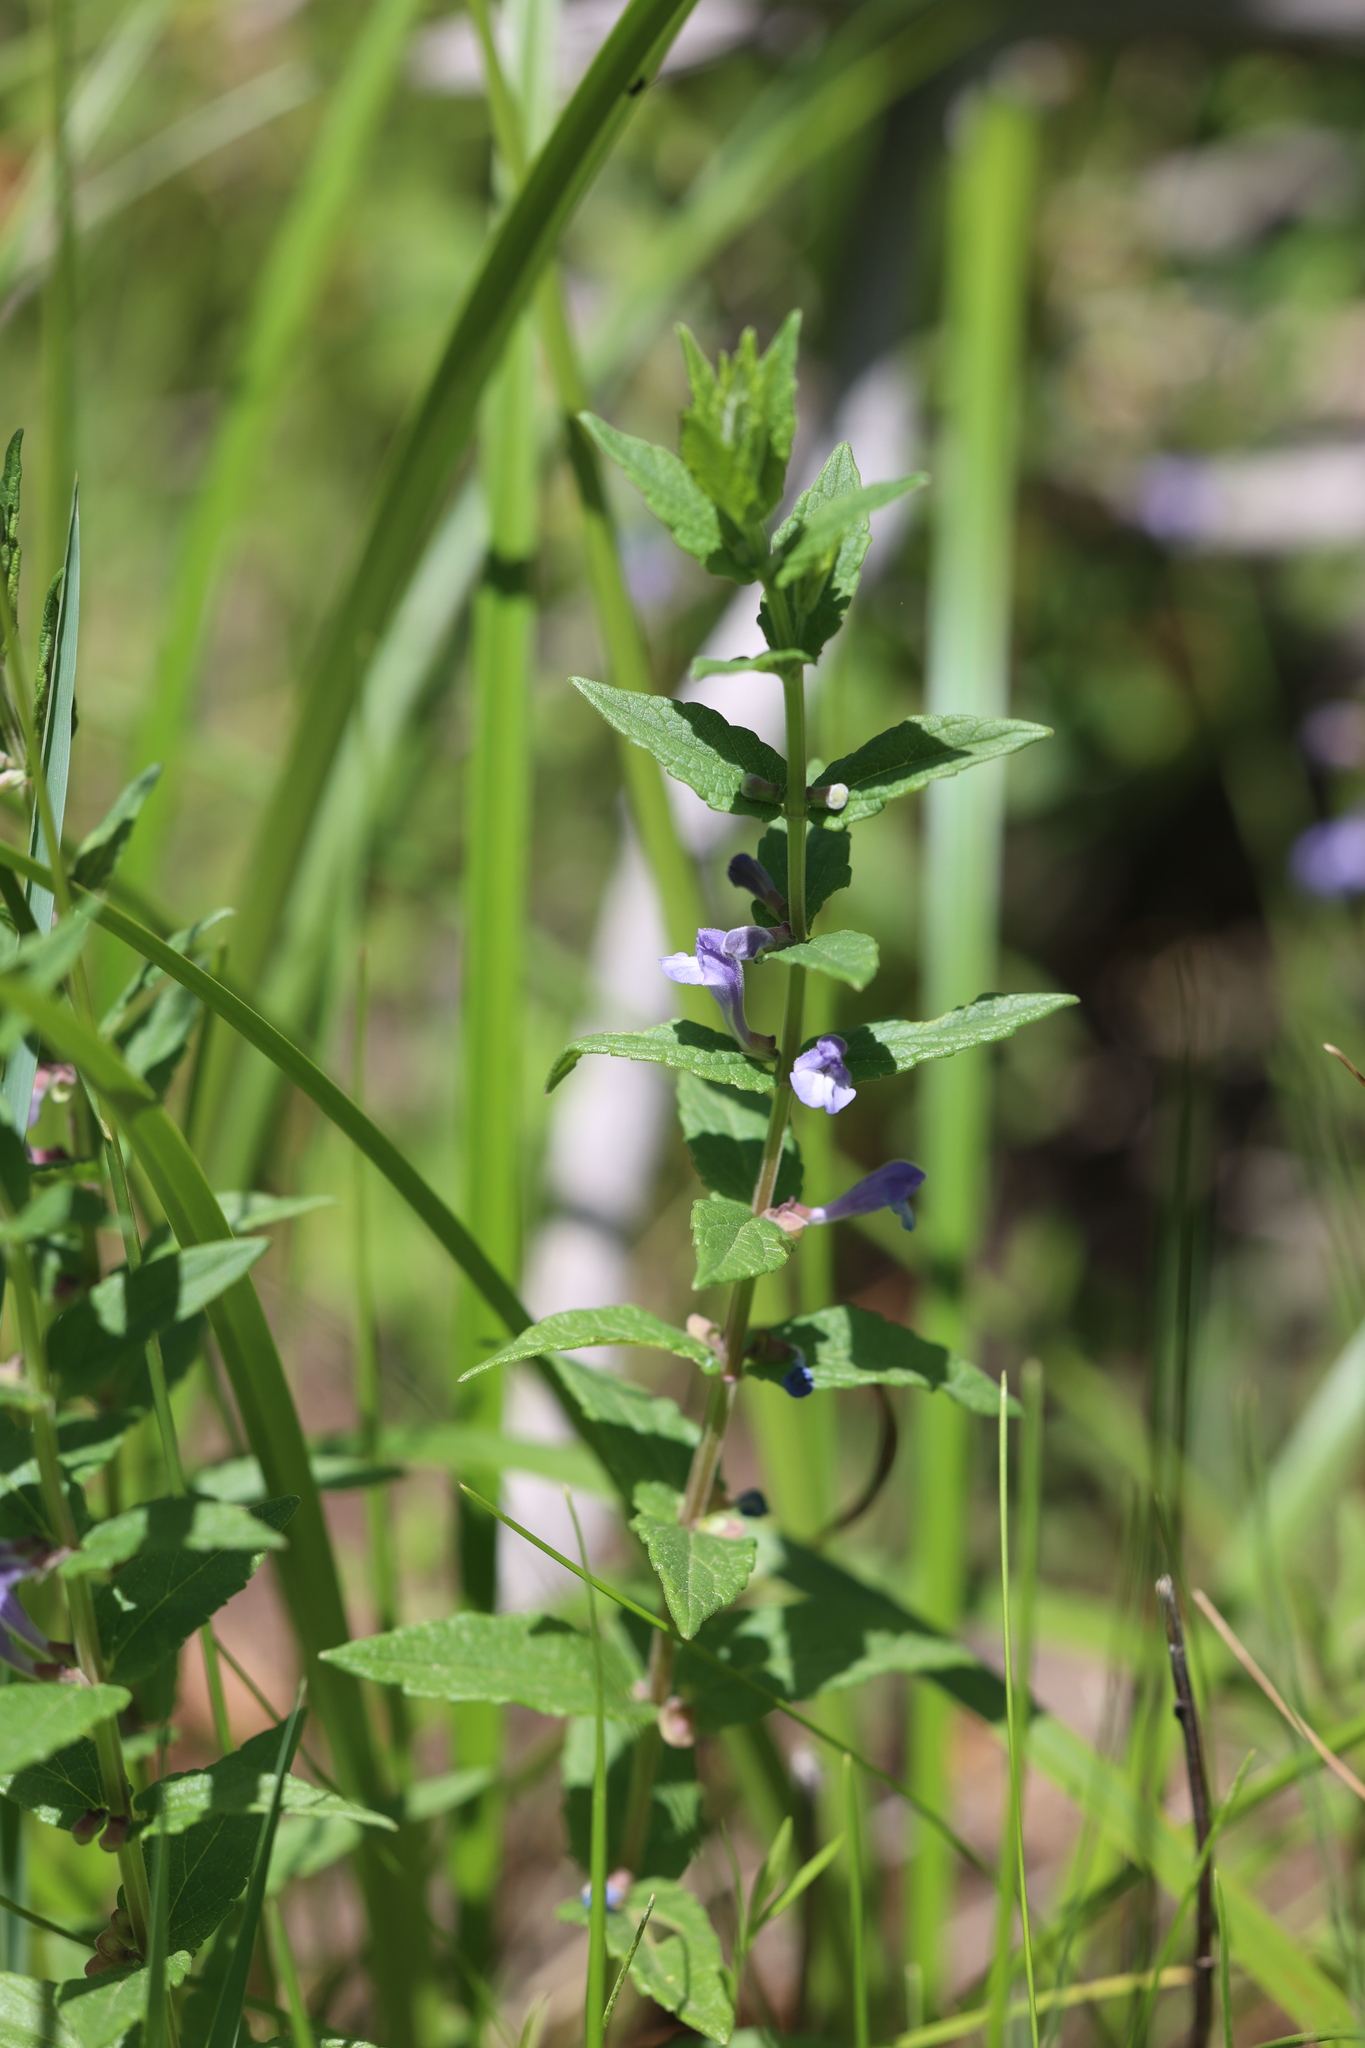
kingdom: Plantae
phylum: Tracheophyta
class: Magnoliopsida
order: Lamiales
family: Lamiaceae
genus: Scutellaria
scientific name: Scutellaria galericulata
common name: Skullcap
